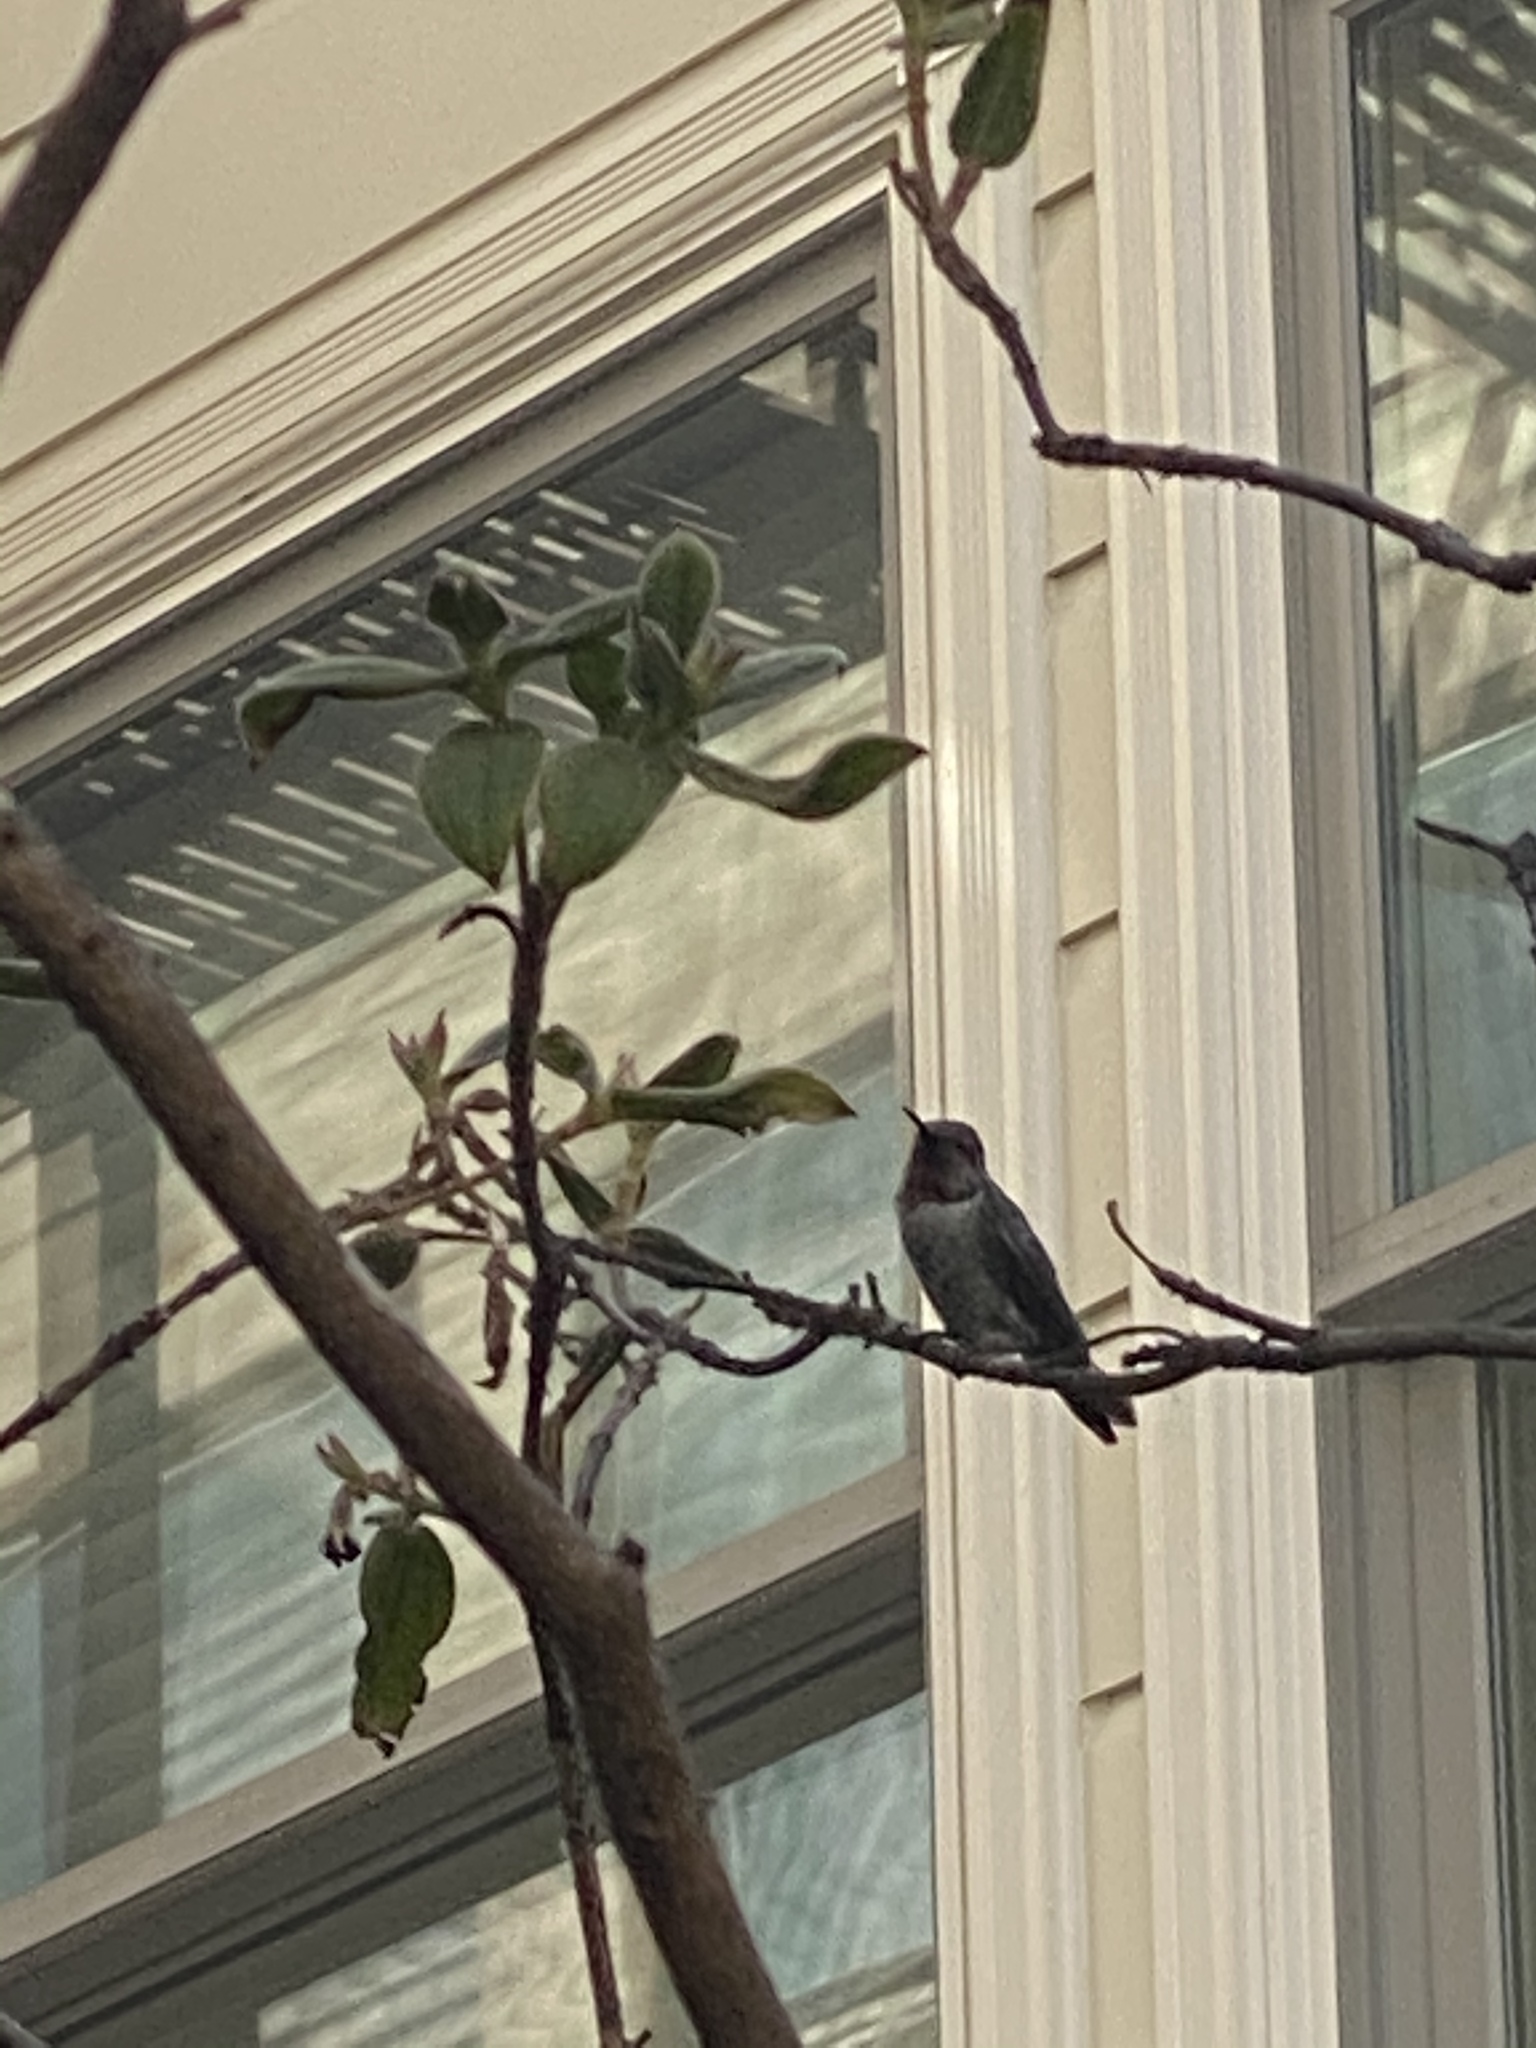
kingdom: Animalia
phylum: Chordata
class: Aves
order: Apodiformes
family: Trochilidae
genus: Calypte
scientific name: Calypte anna
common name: Anna's hummingbird
